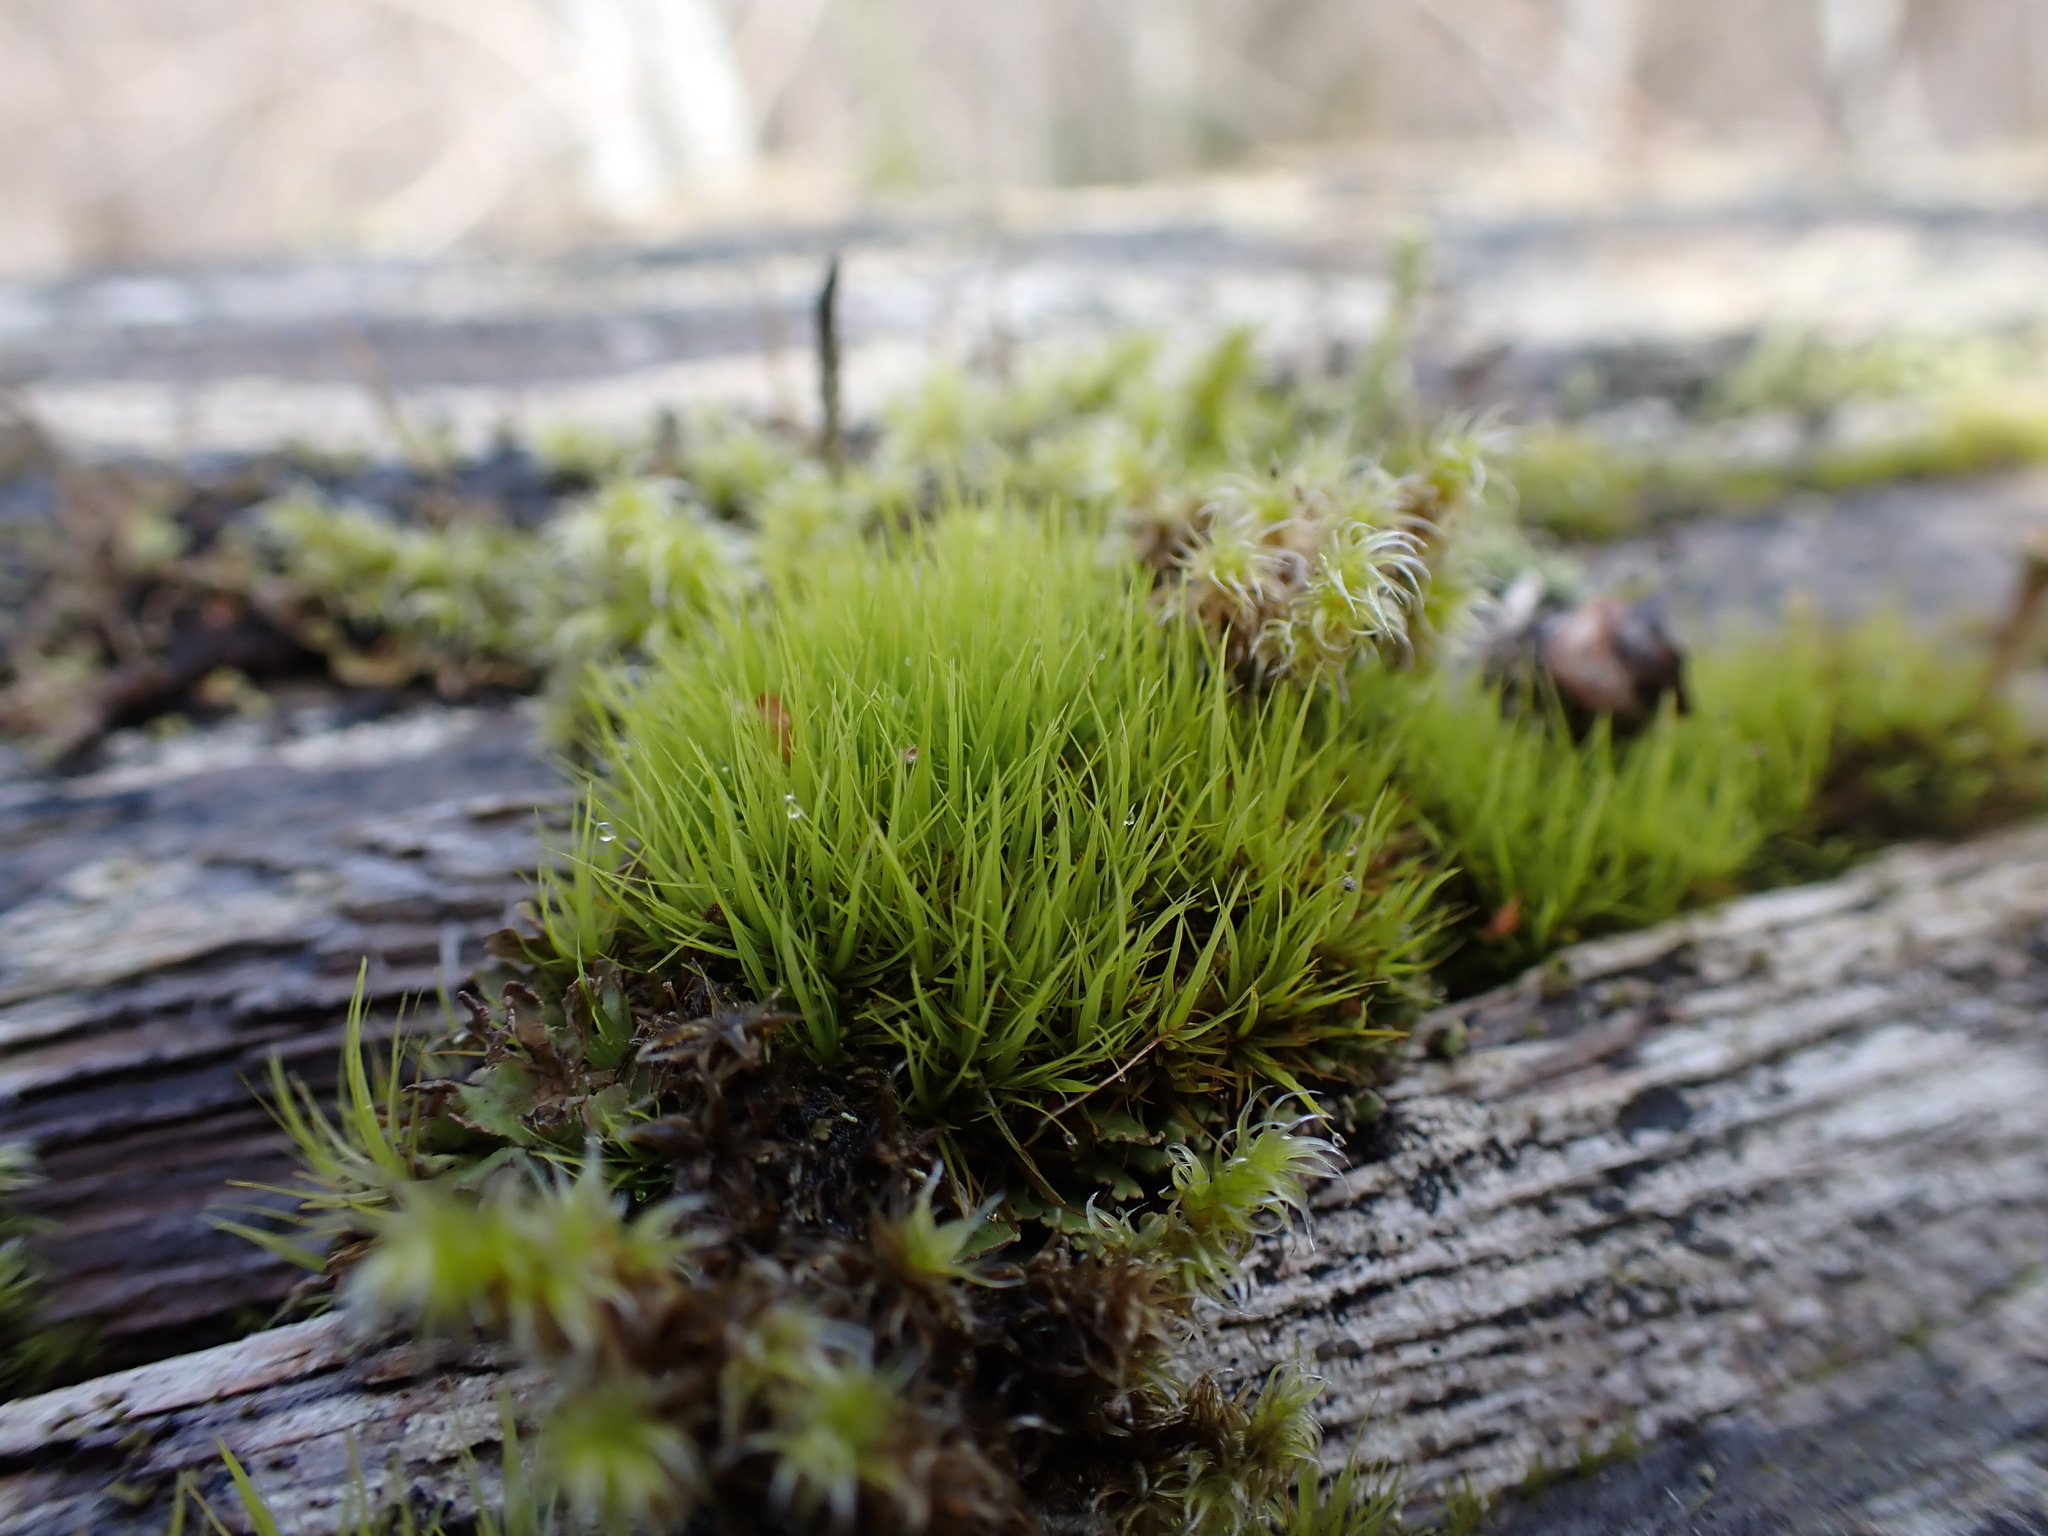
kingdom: Plantae
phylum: Bryophyta
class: Bryopsida
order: Dicranales
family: Dicranaceae
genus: Orthodicranum
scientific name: Orthodicranum tauricum
